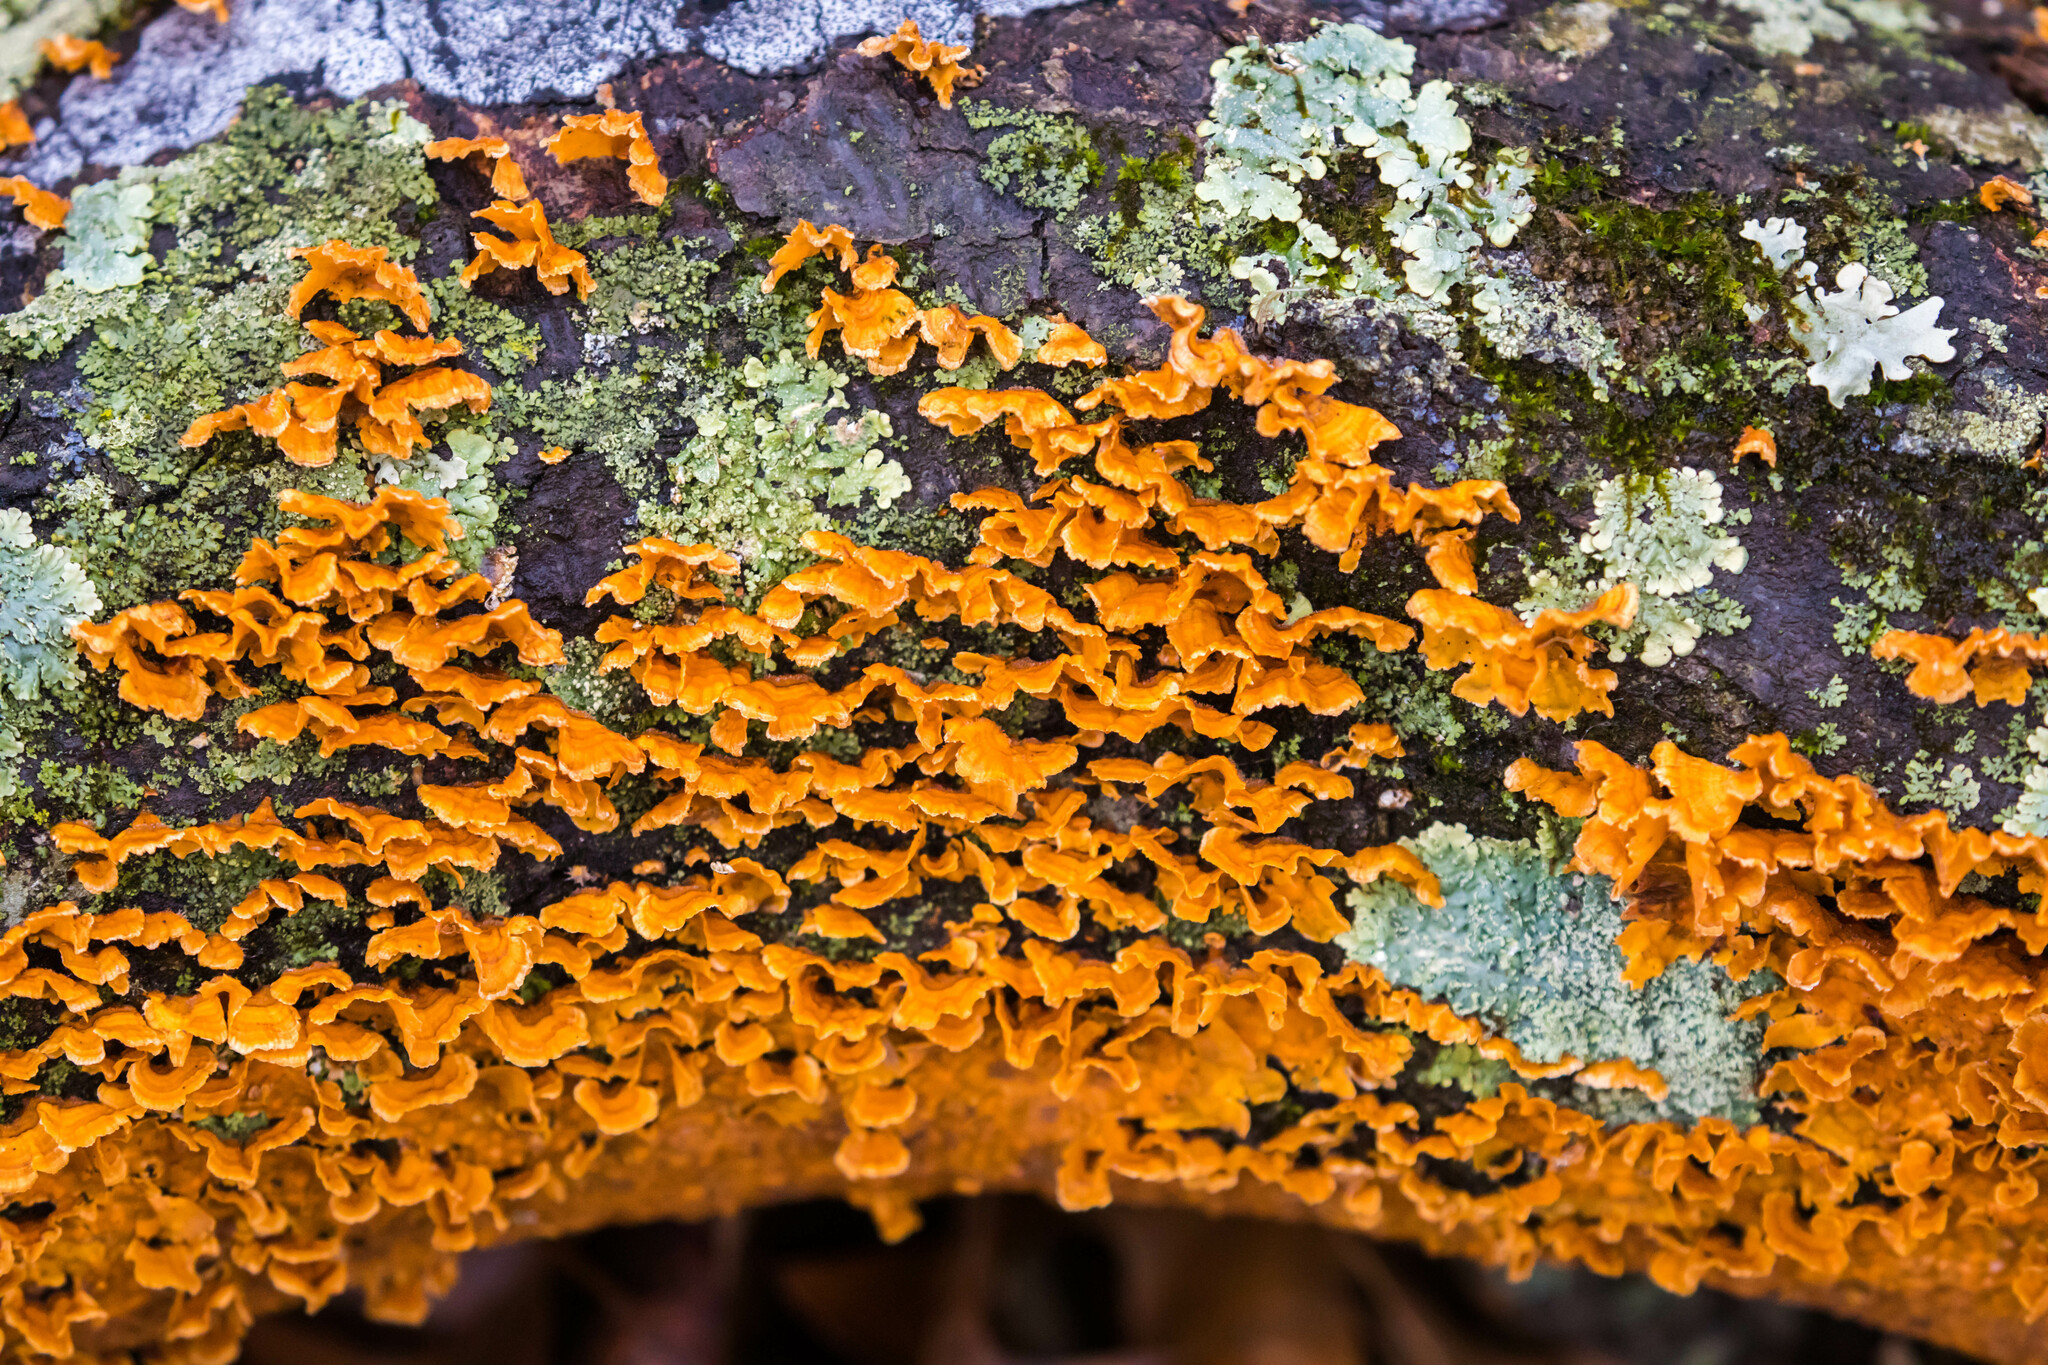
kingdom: Fungi
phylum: Basidiomycota
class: Agaricomycetes
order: Russulales
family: Stereaceae
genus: Stereum
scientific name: Stereum complicatum
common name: Crowded parchment
